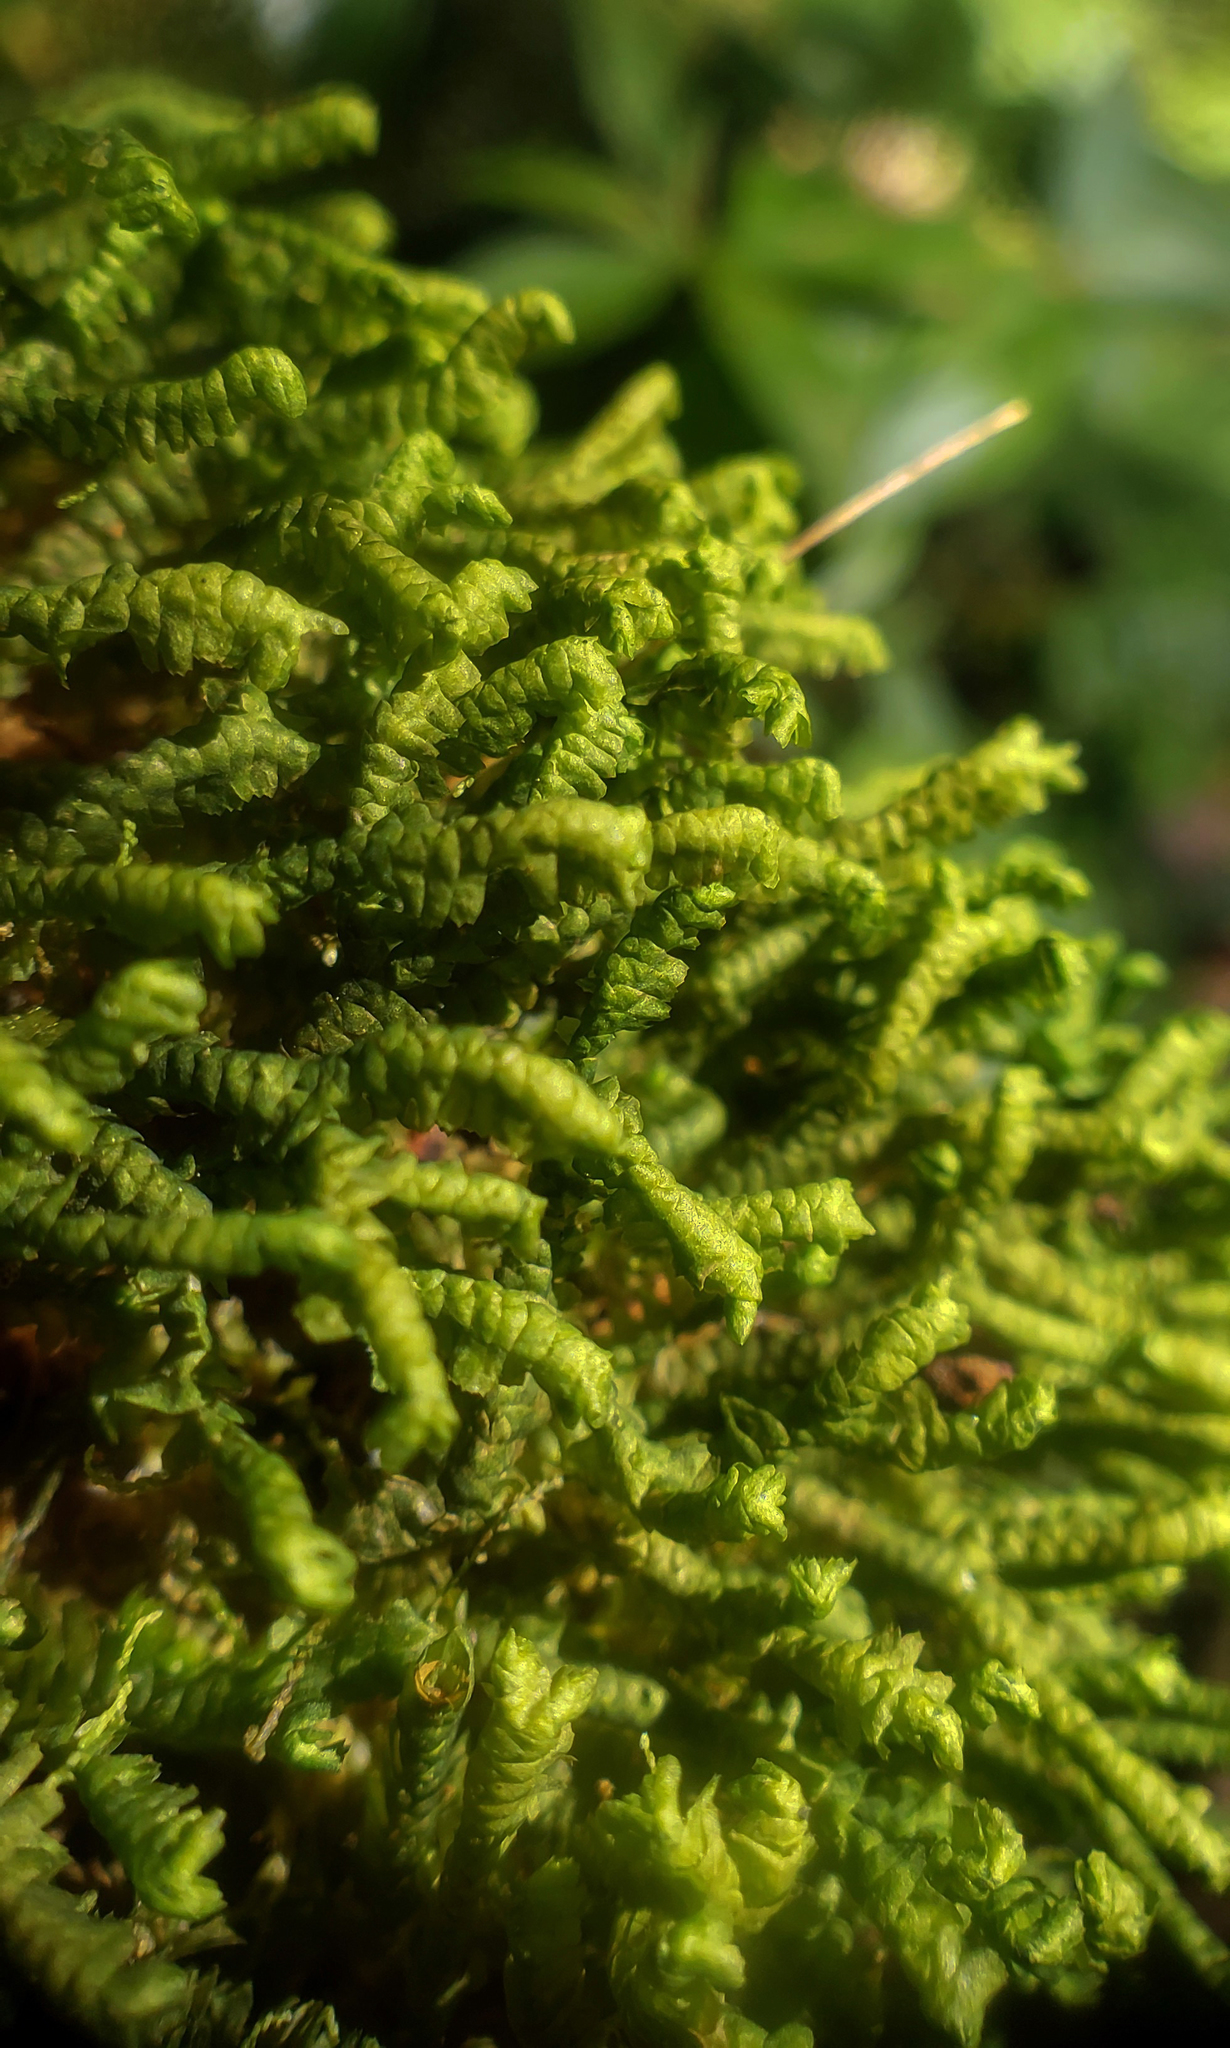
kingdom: Plantae
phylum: Marchantiophyta
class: Jungermanniopsida
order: Jungermanniales
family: Lepidoziaceae
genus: Bazzania
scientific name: Bazzania trilobata
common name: Three-lobed whipwort
